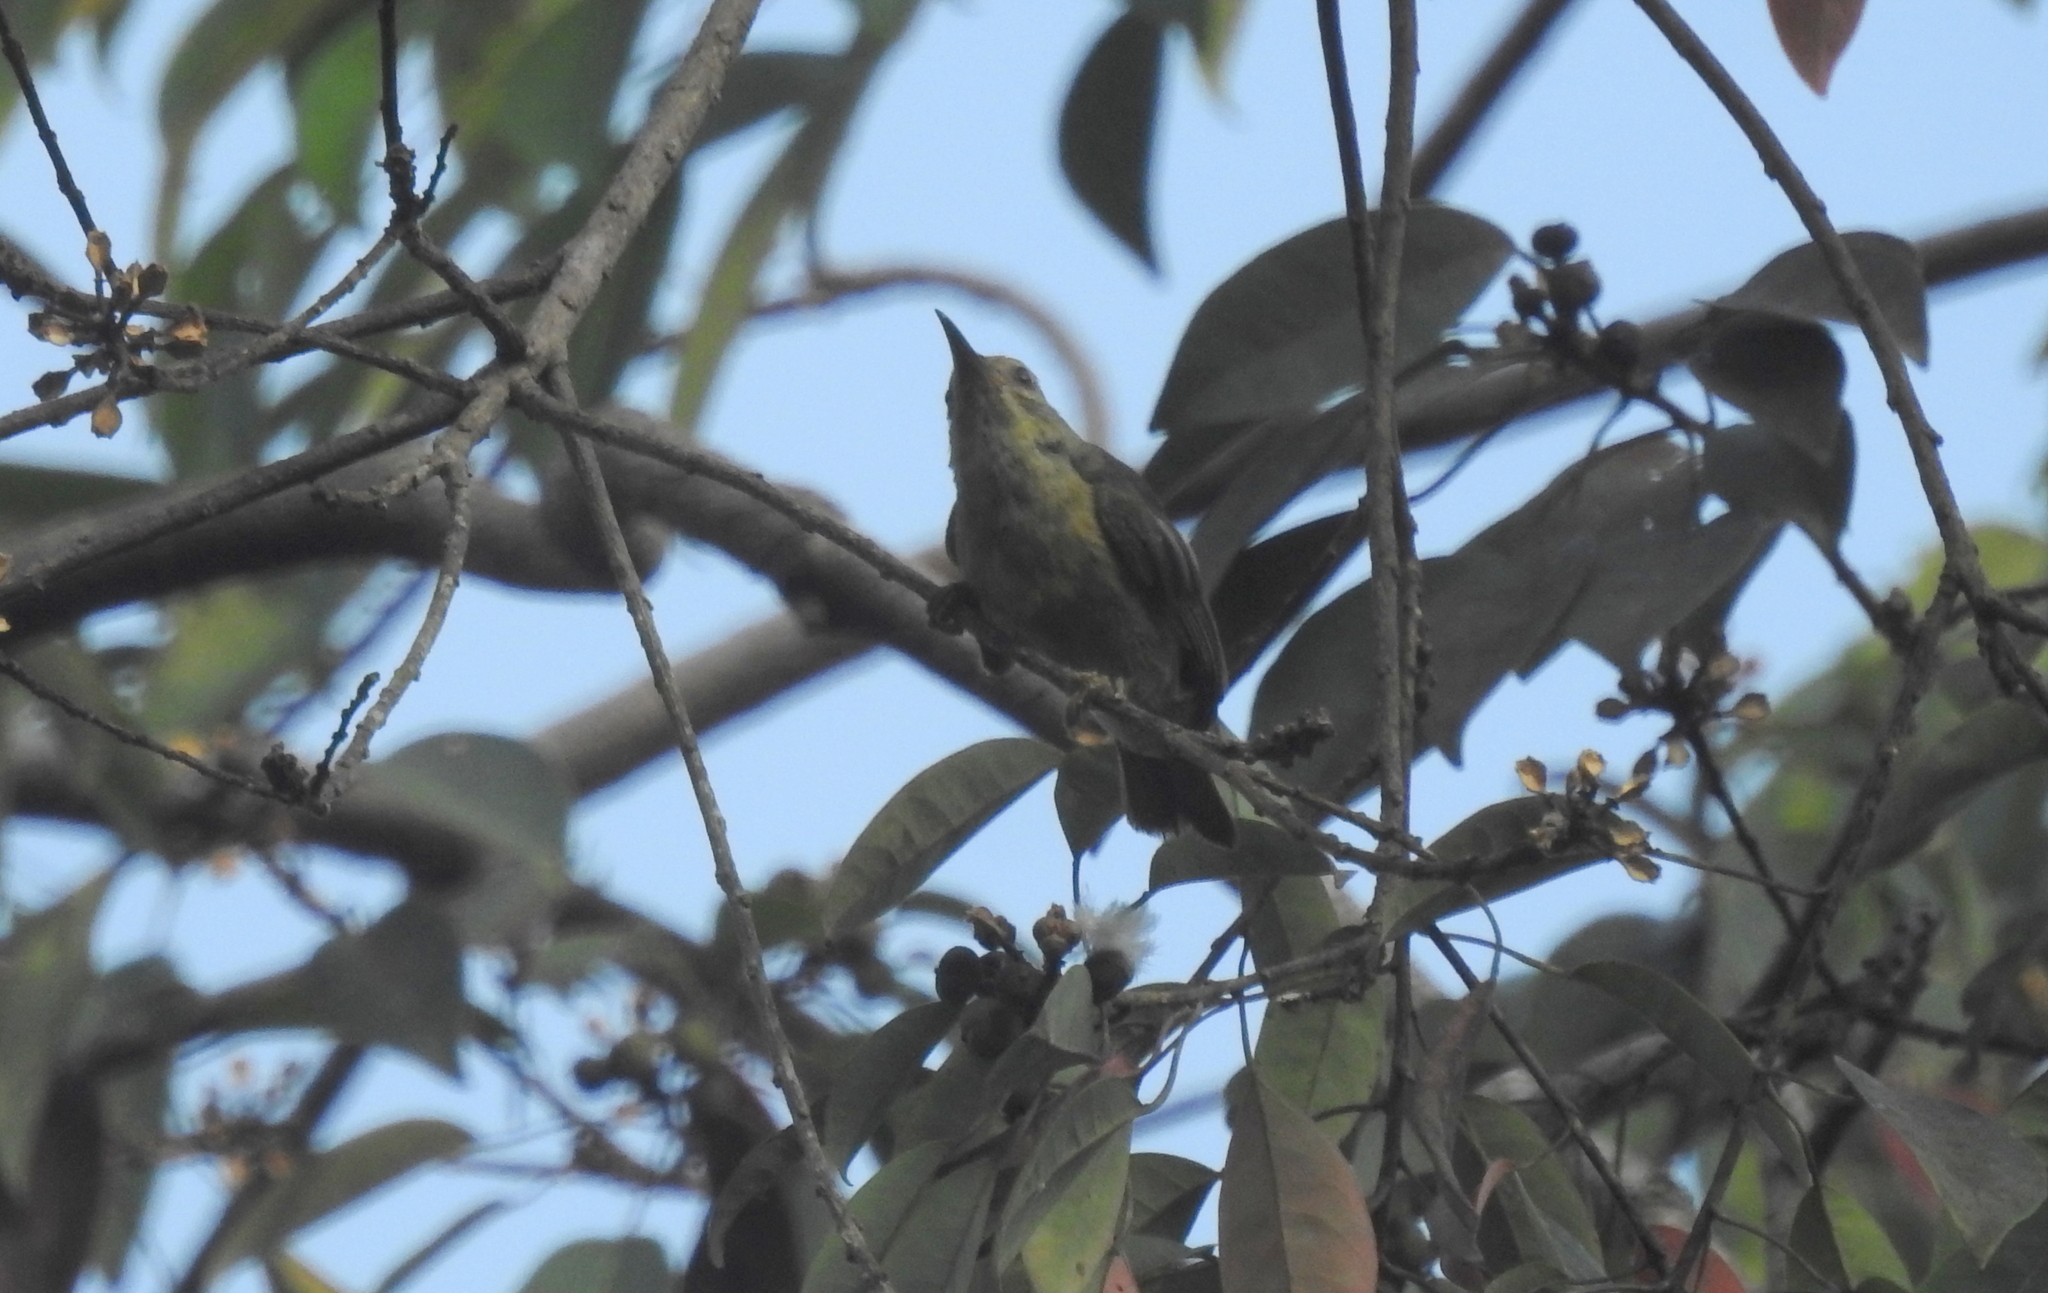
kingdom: Animalia
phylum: Chordata
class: Aves
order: Passeriformes
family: Nectariniidae
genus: Anthreptes
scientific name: Anthreptes malacensis
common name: Brown-throated sunbird
